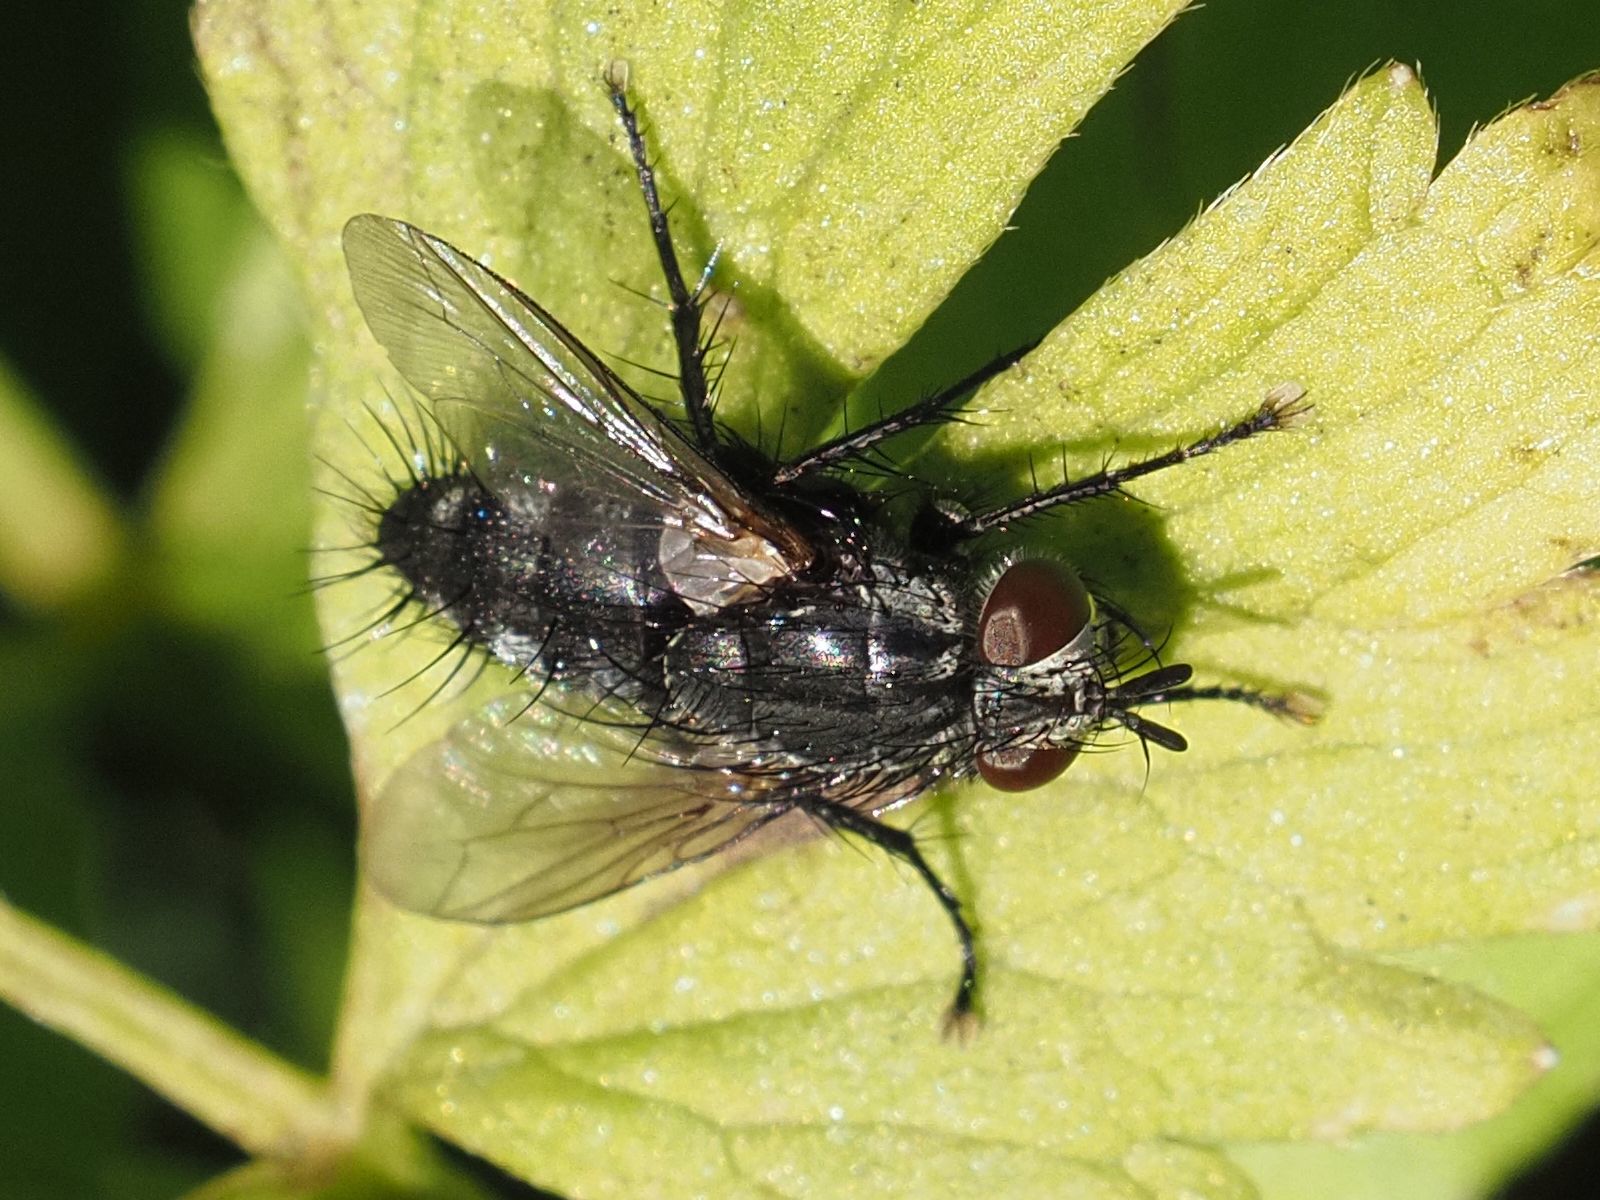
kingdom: Animalia
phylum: Arthropoda
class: Insecta
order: Diptera
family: Tachinidae
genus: Voria
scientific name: Voria ruralis
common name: Parasitic fly
